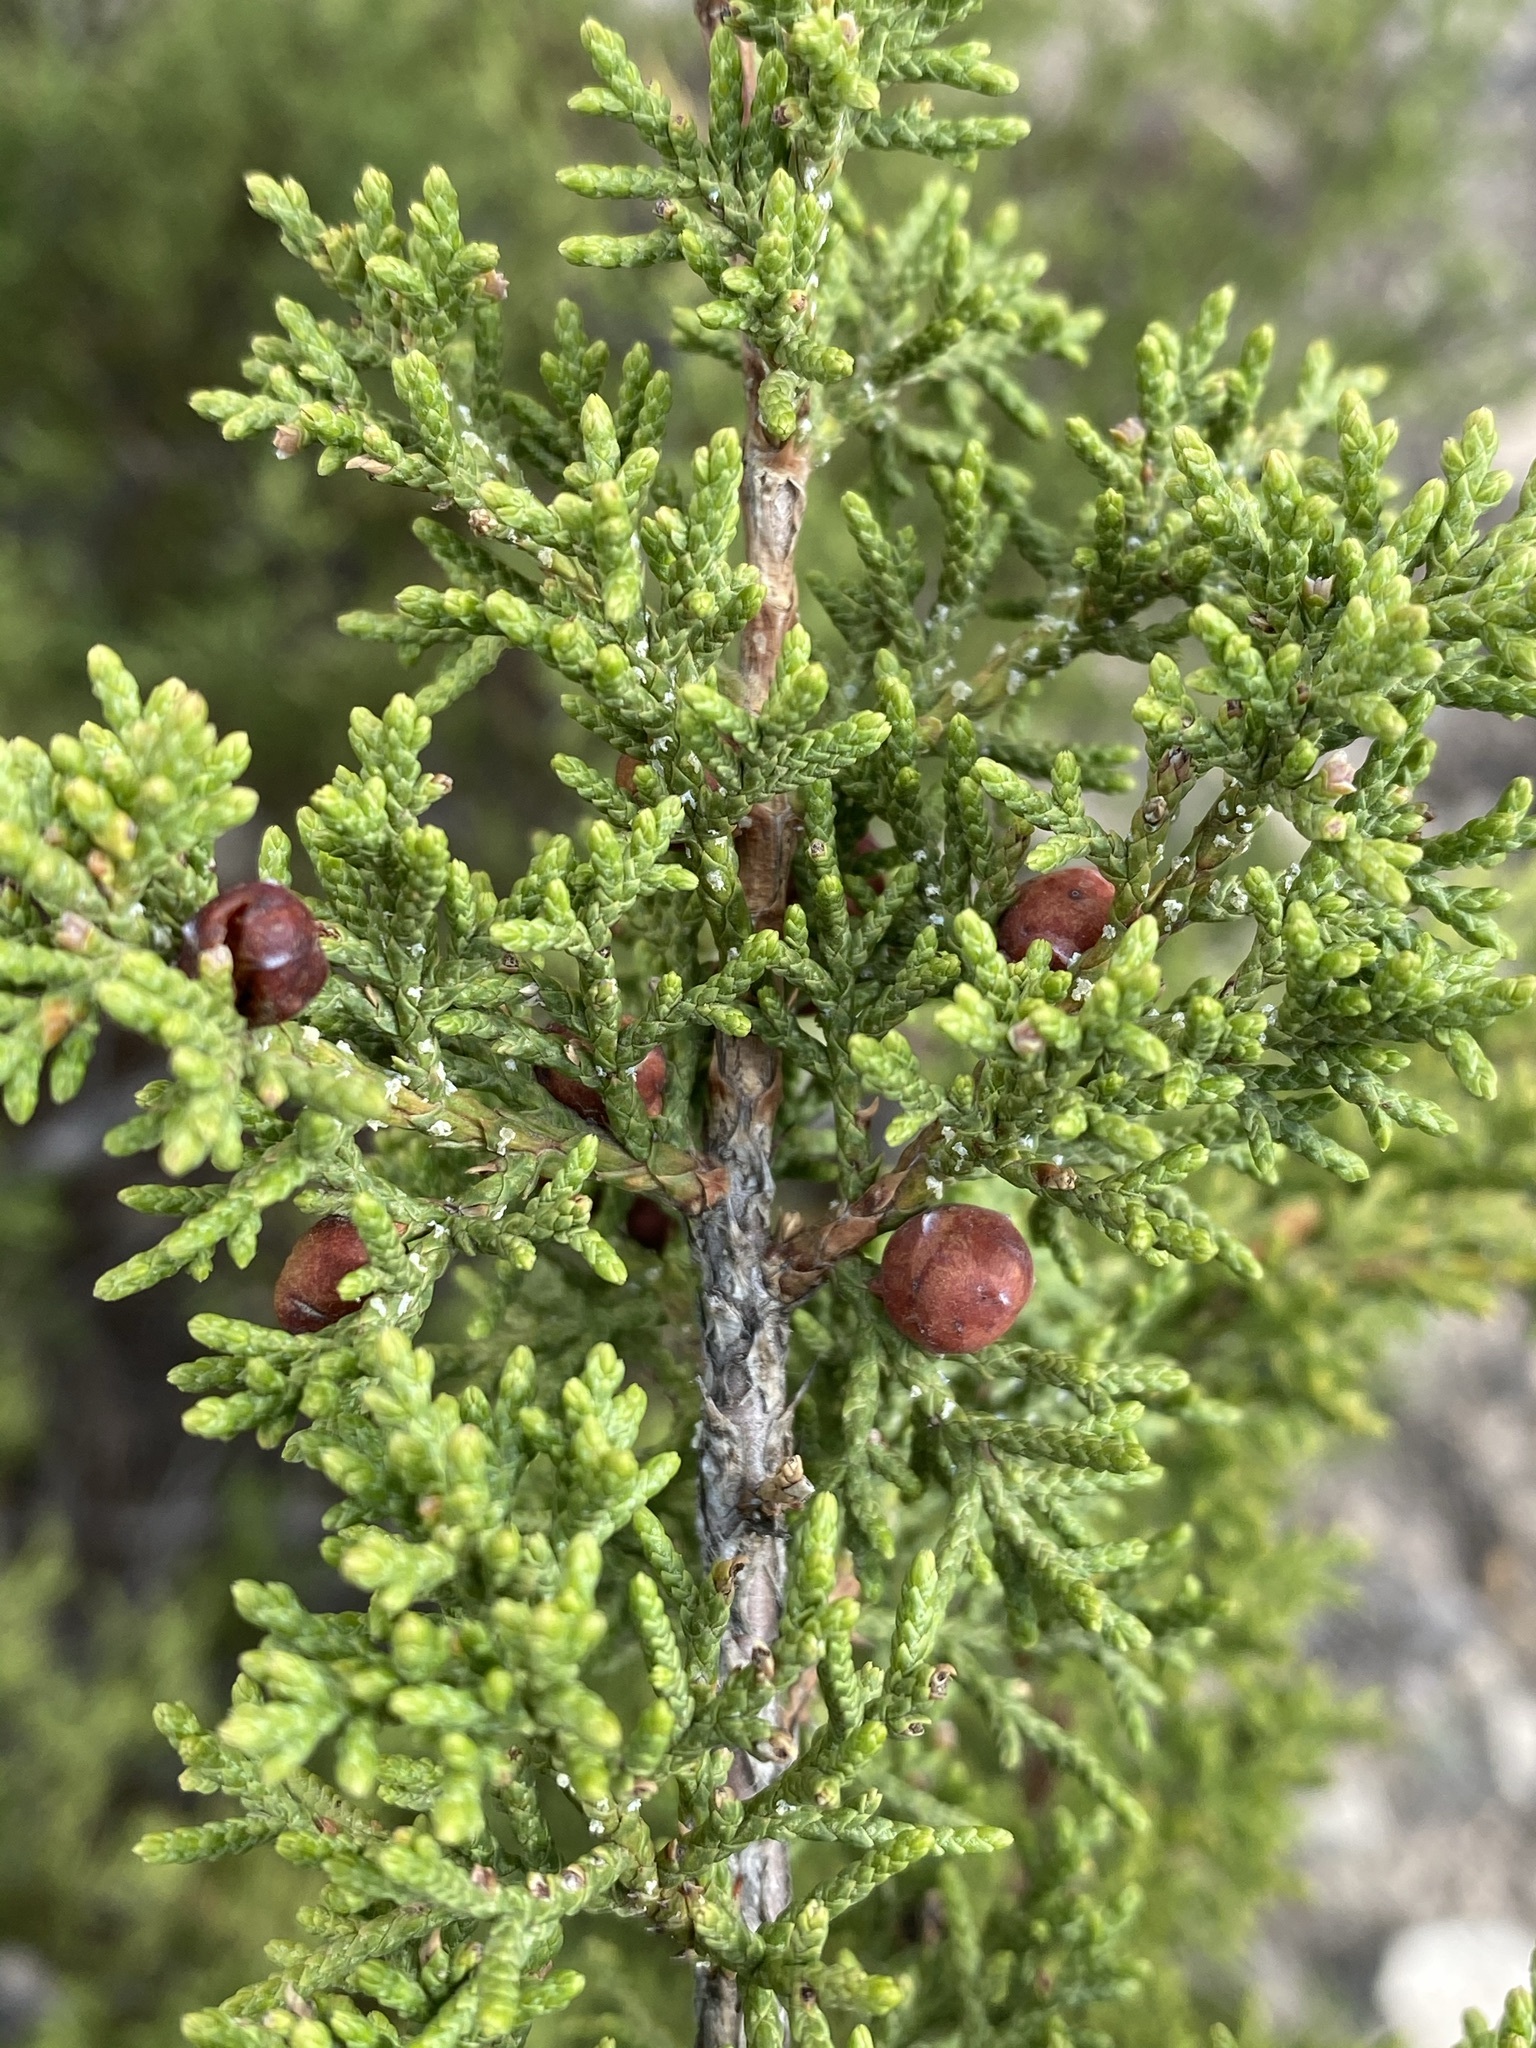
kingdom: Plantae
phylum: Tracheophyta
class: Pinopsida
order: Pinales
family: Cupressaceae
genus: Juniperus
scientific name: Juniperus pinchotii
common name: Pinchot juniper
